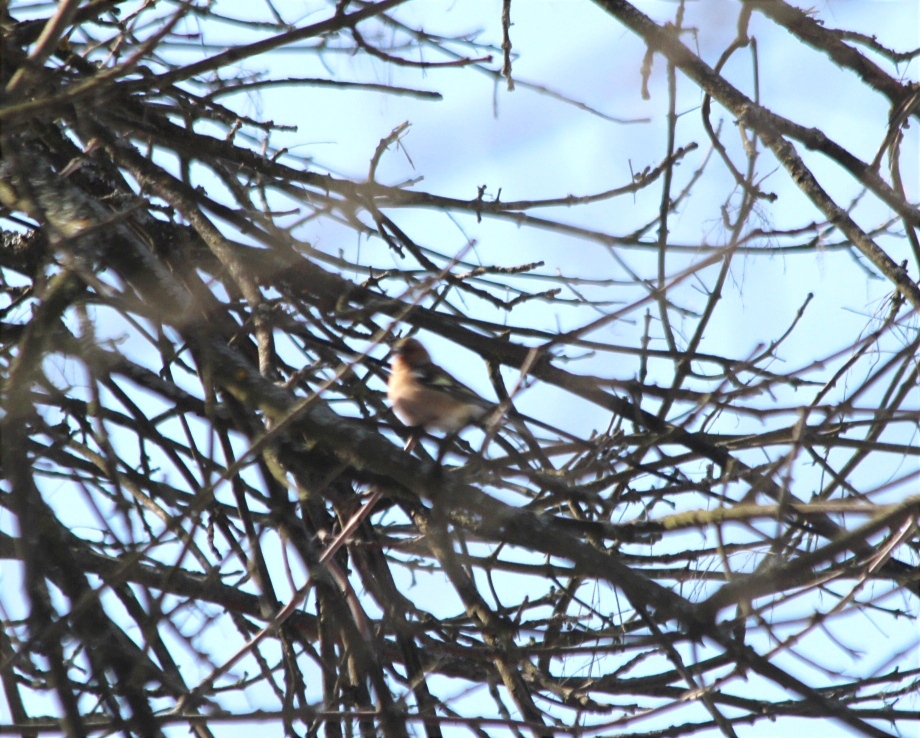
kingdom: Animalia
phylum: Chordata
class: Aves
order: Passeriformes
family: Fringillidae
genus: Fringilla
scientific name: Fringilla coelebs
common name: Common chaffinch
